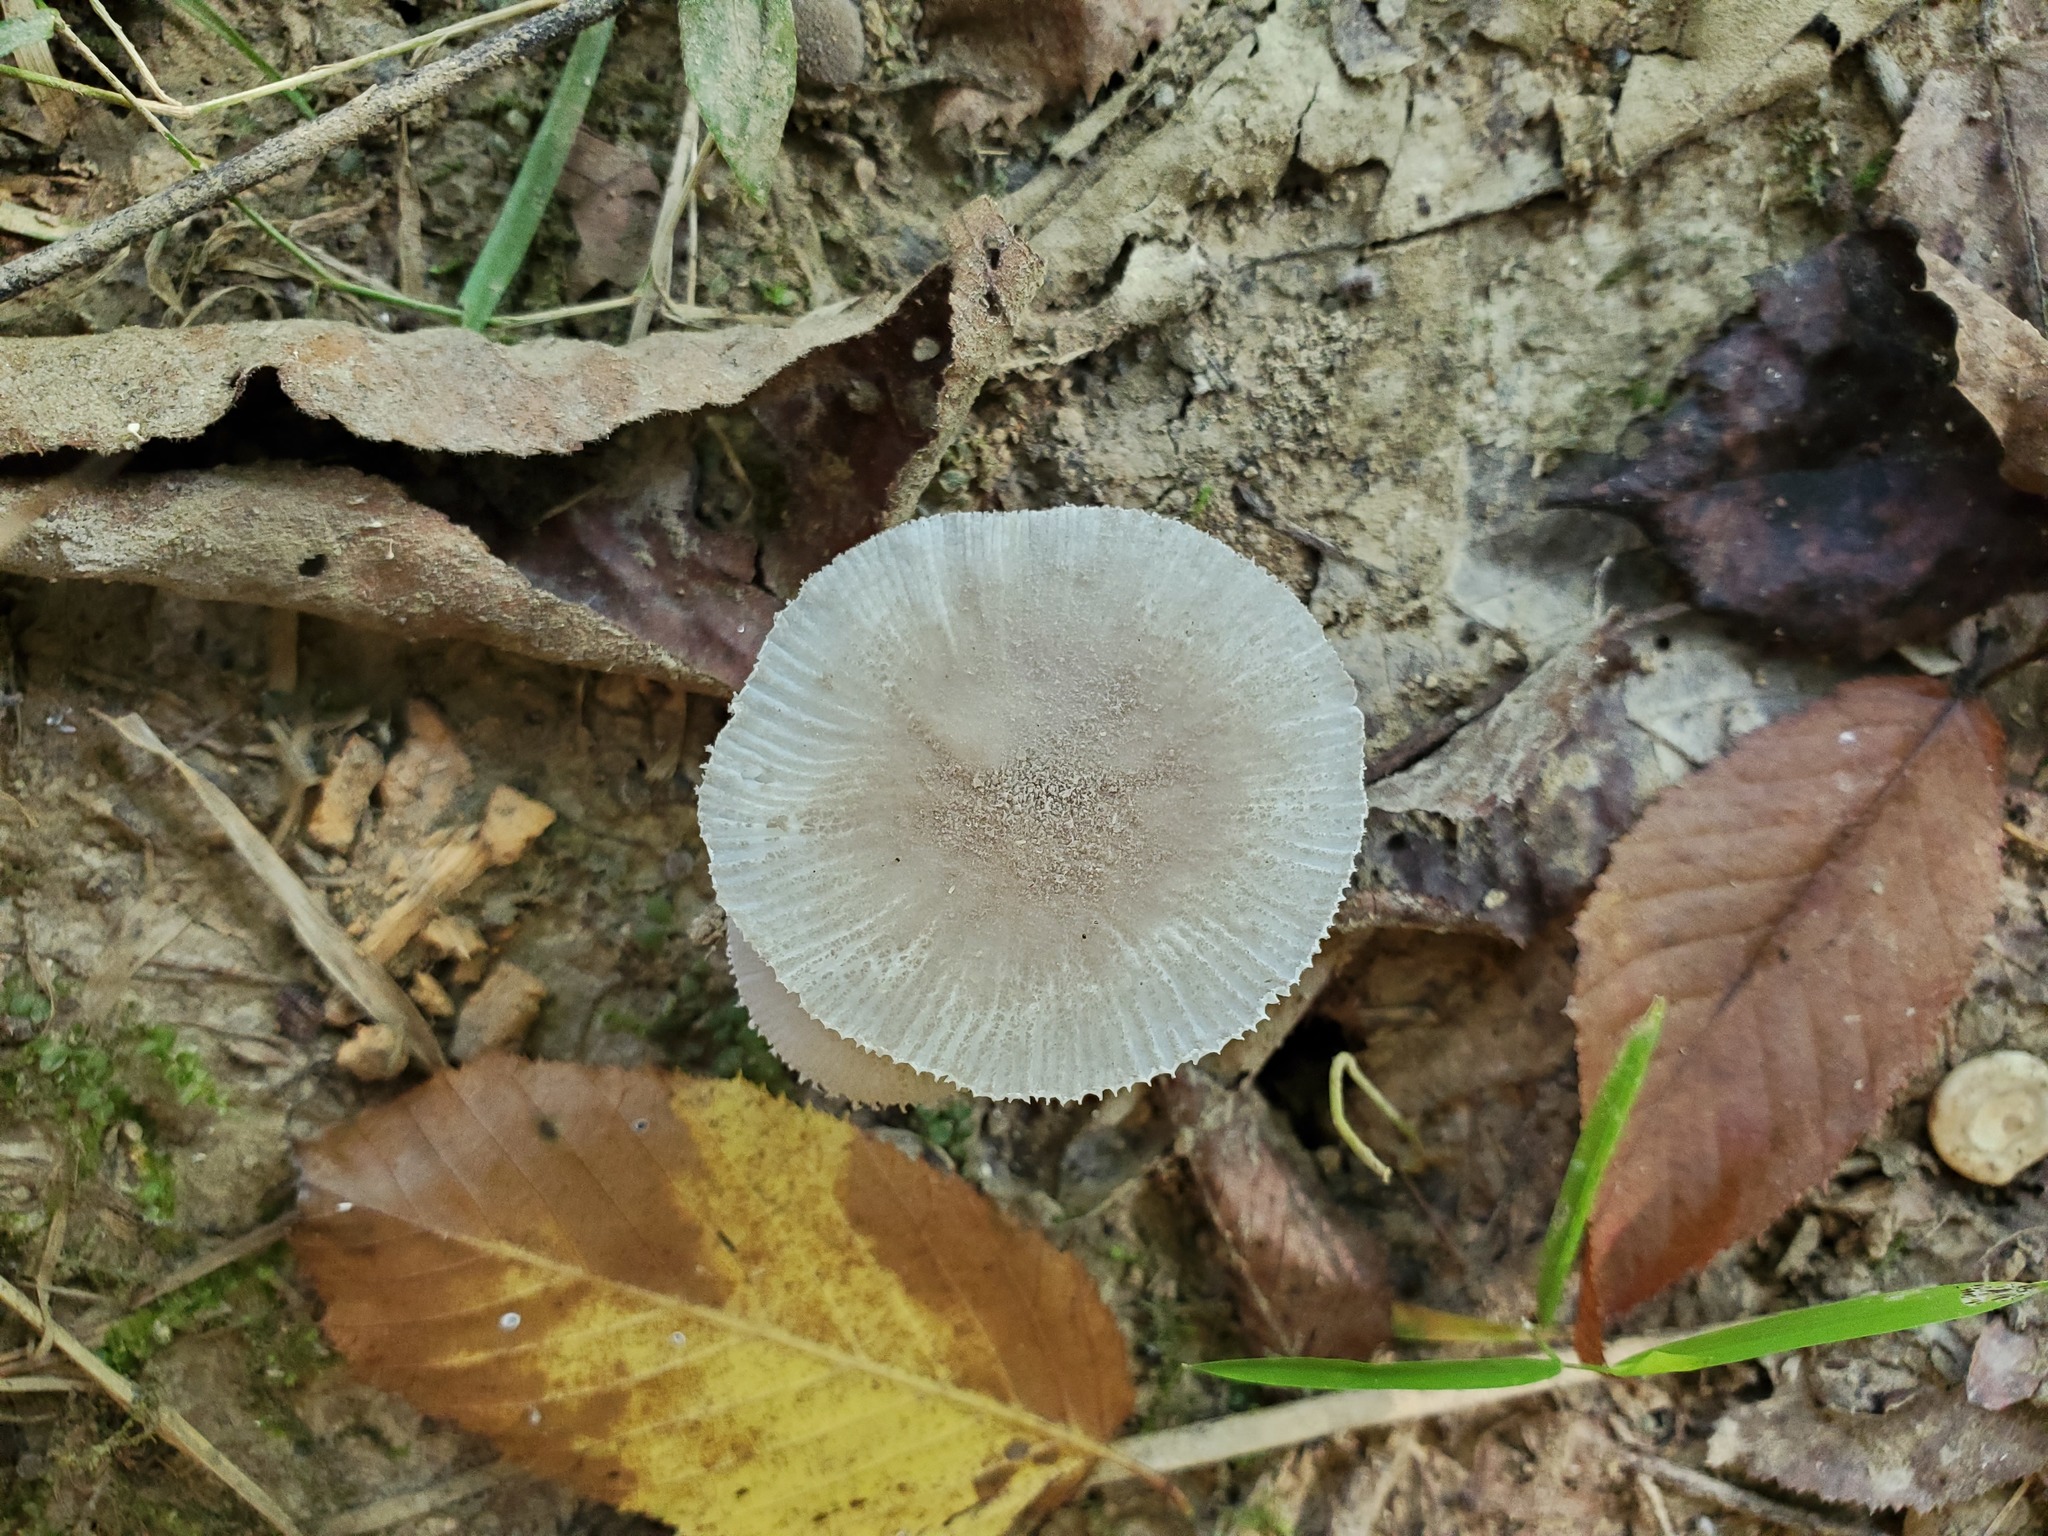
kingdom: Fungi
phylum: Basidiomycota
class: Agaricomycetes
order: Agaricales
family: Amanitaceae
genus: Amanita
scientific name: Amanita farinosa
